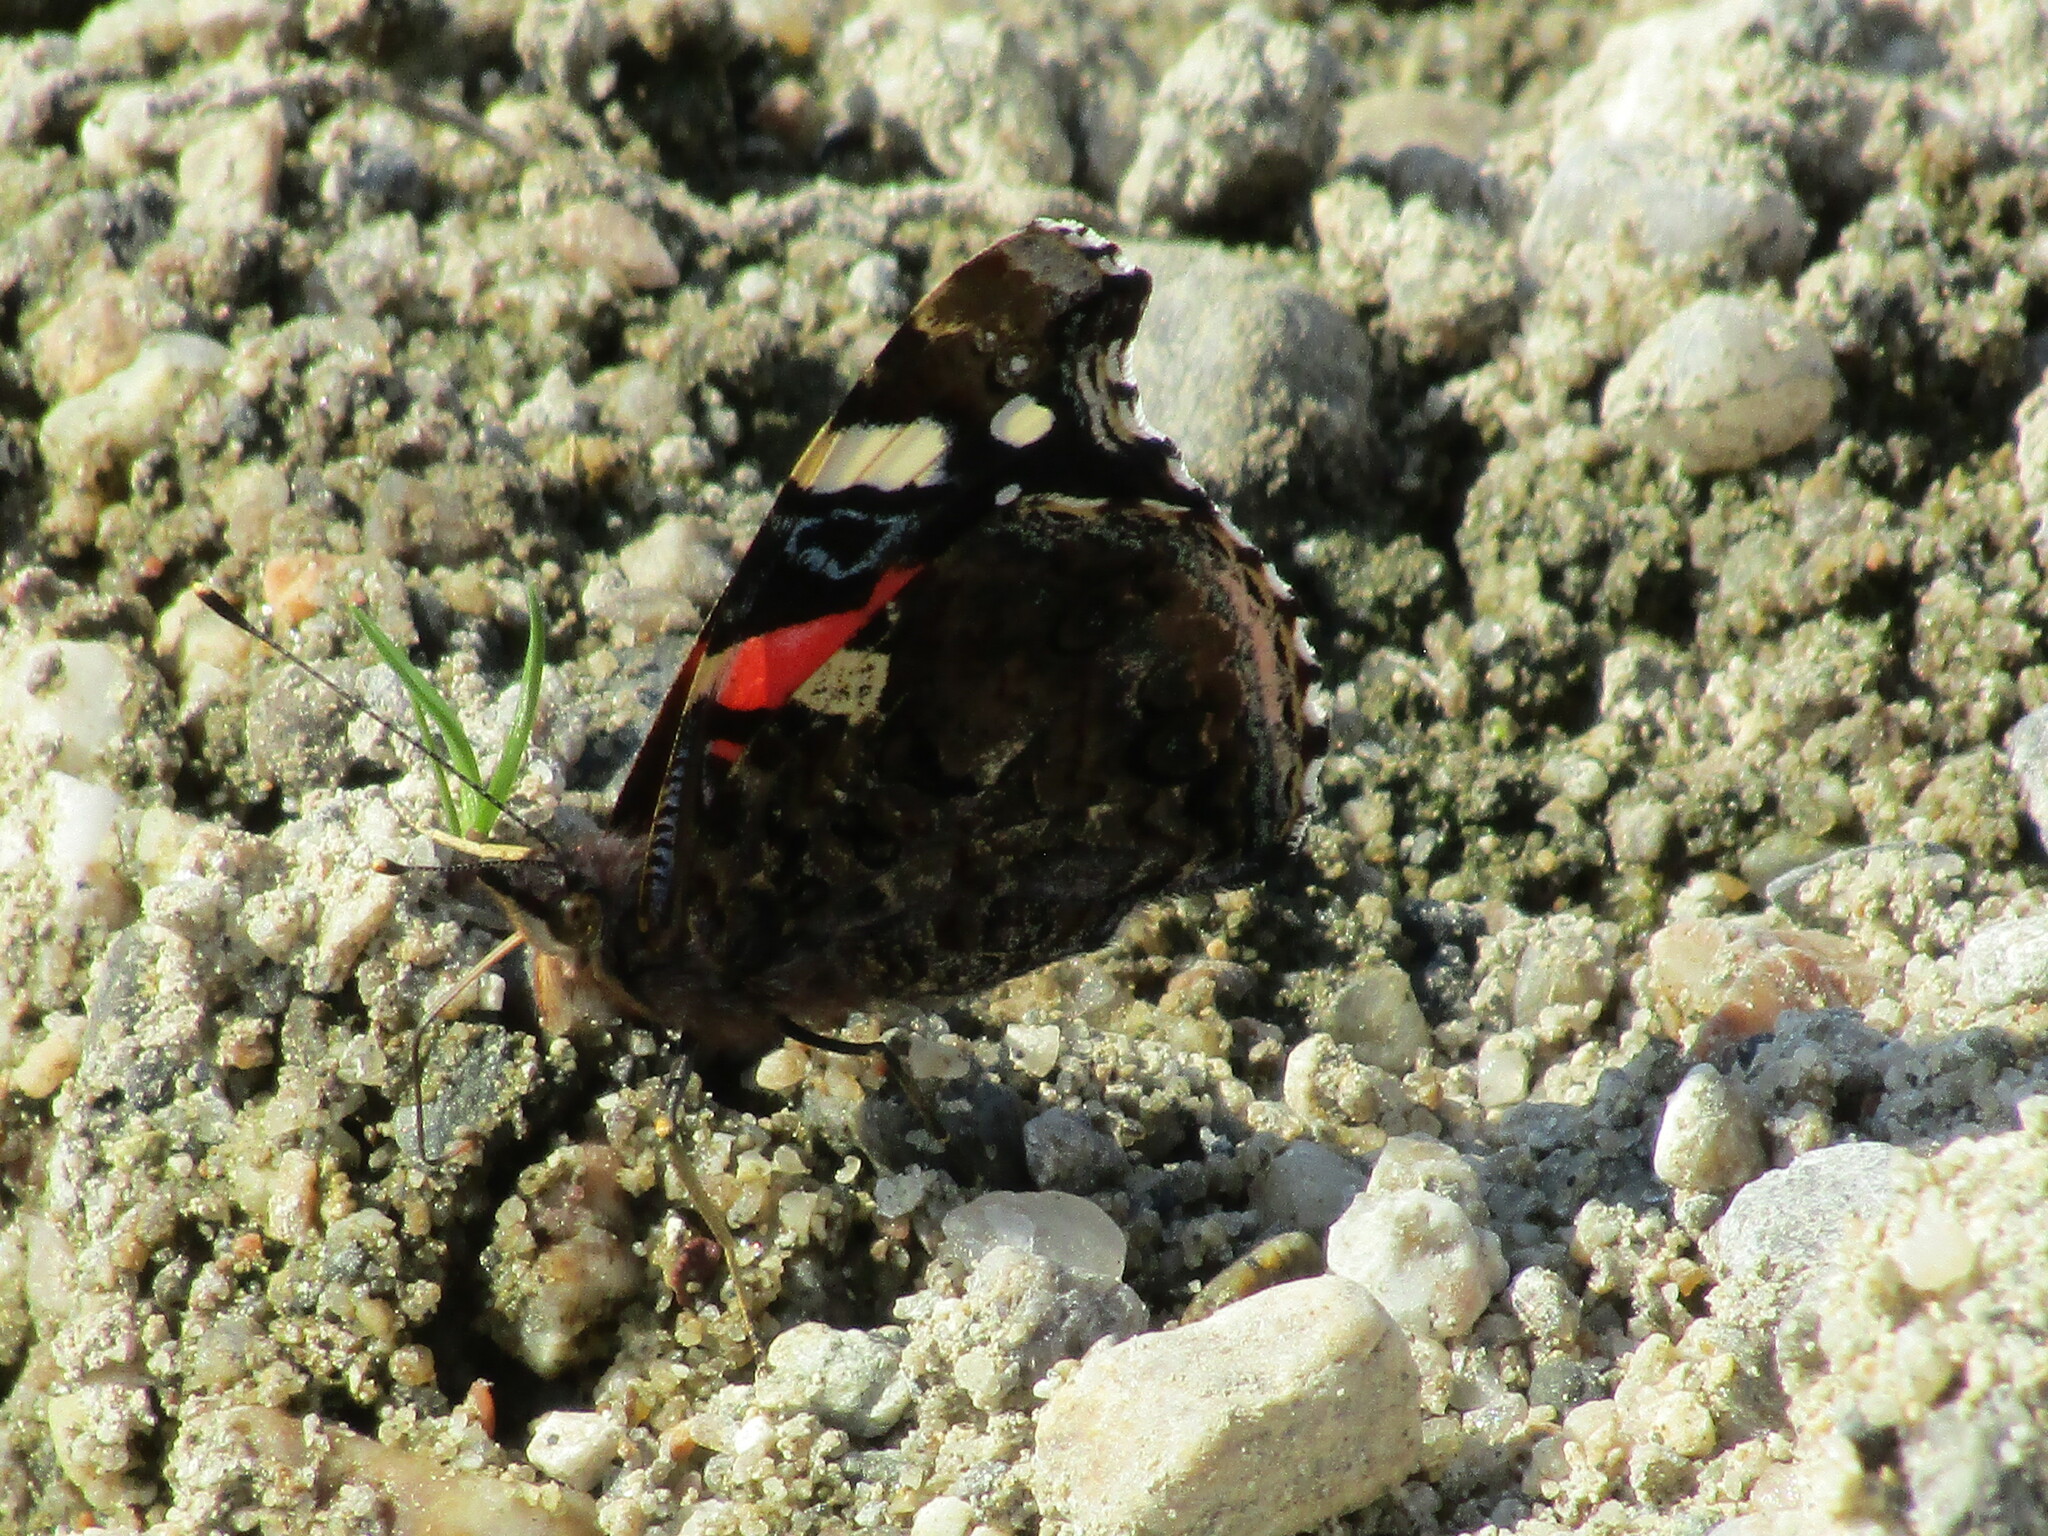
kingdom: Animalia
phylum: Arthropoda
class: Insecta
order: Lepidoptera
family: Nymphalidae
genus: Vanessa
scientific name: Vanessa atalanta
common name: Red admiral
